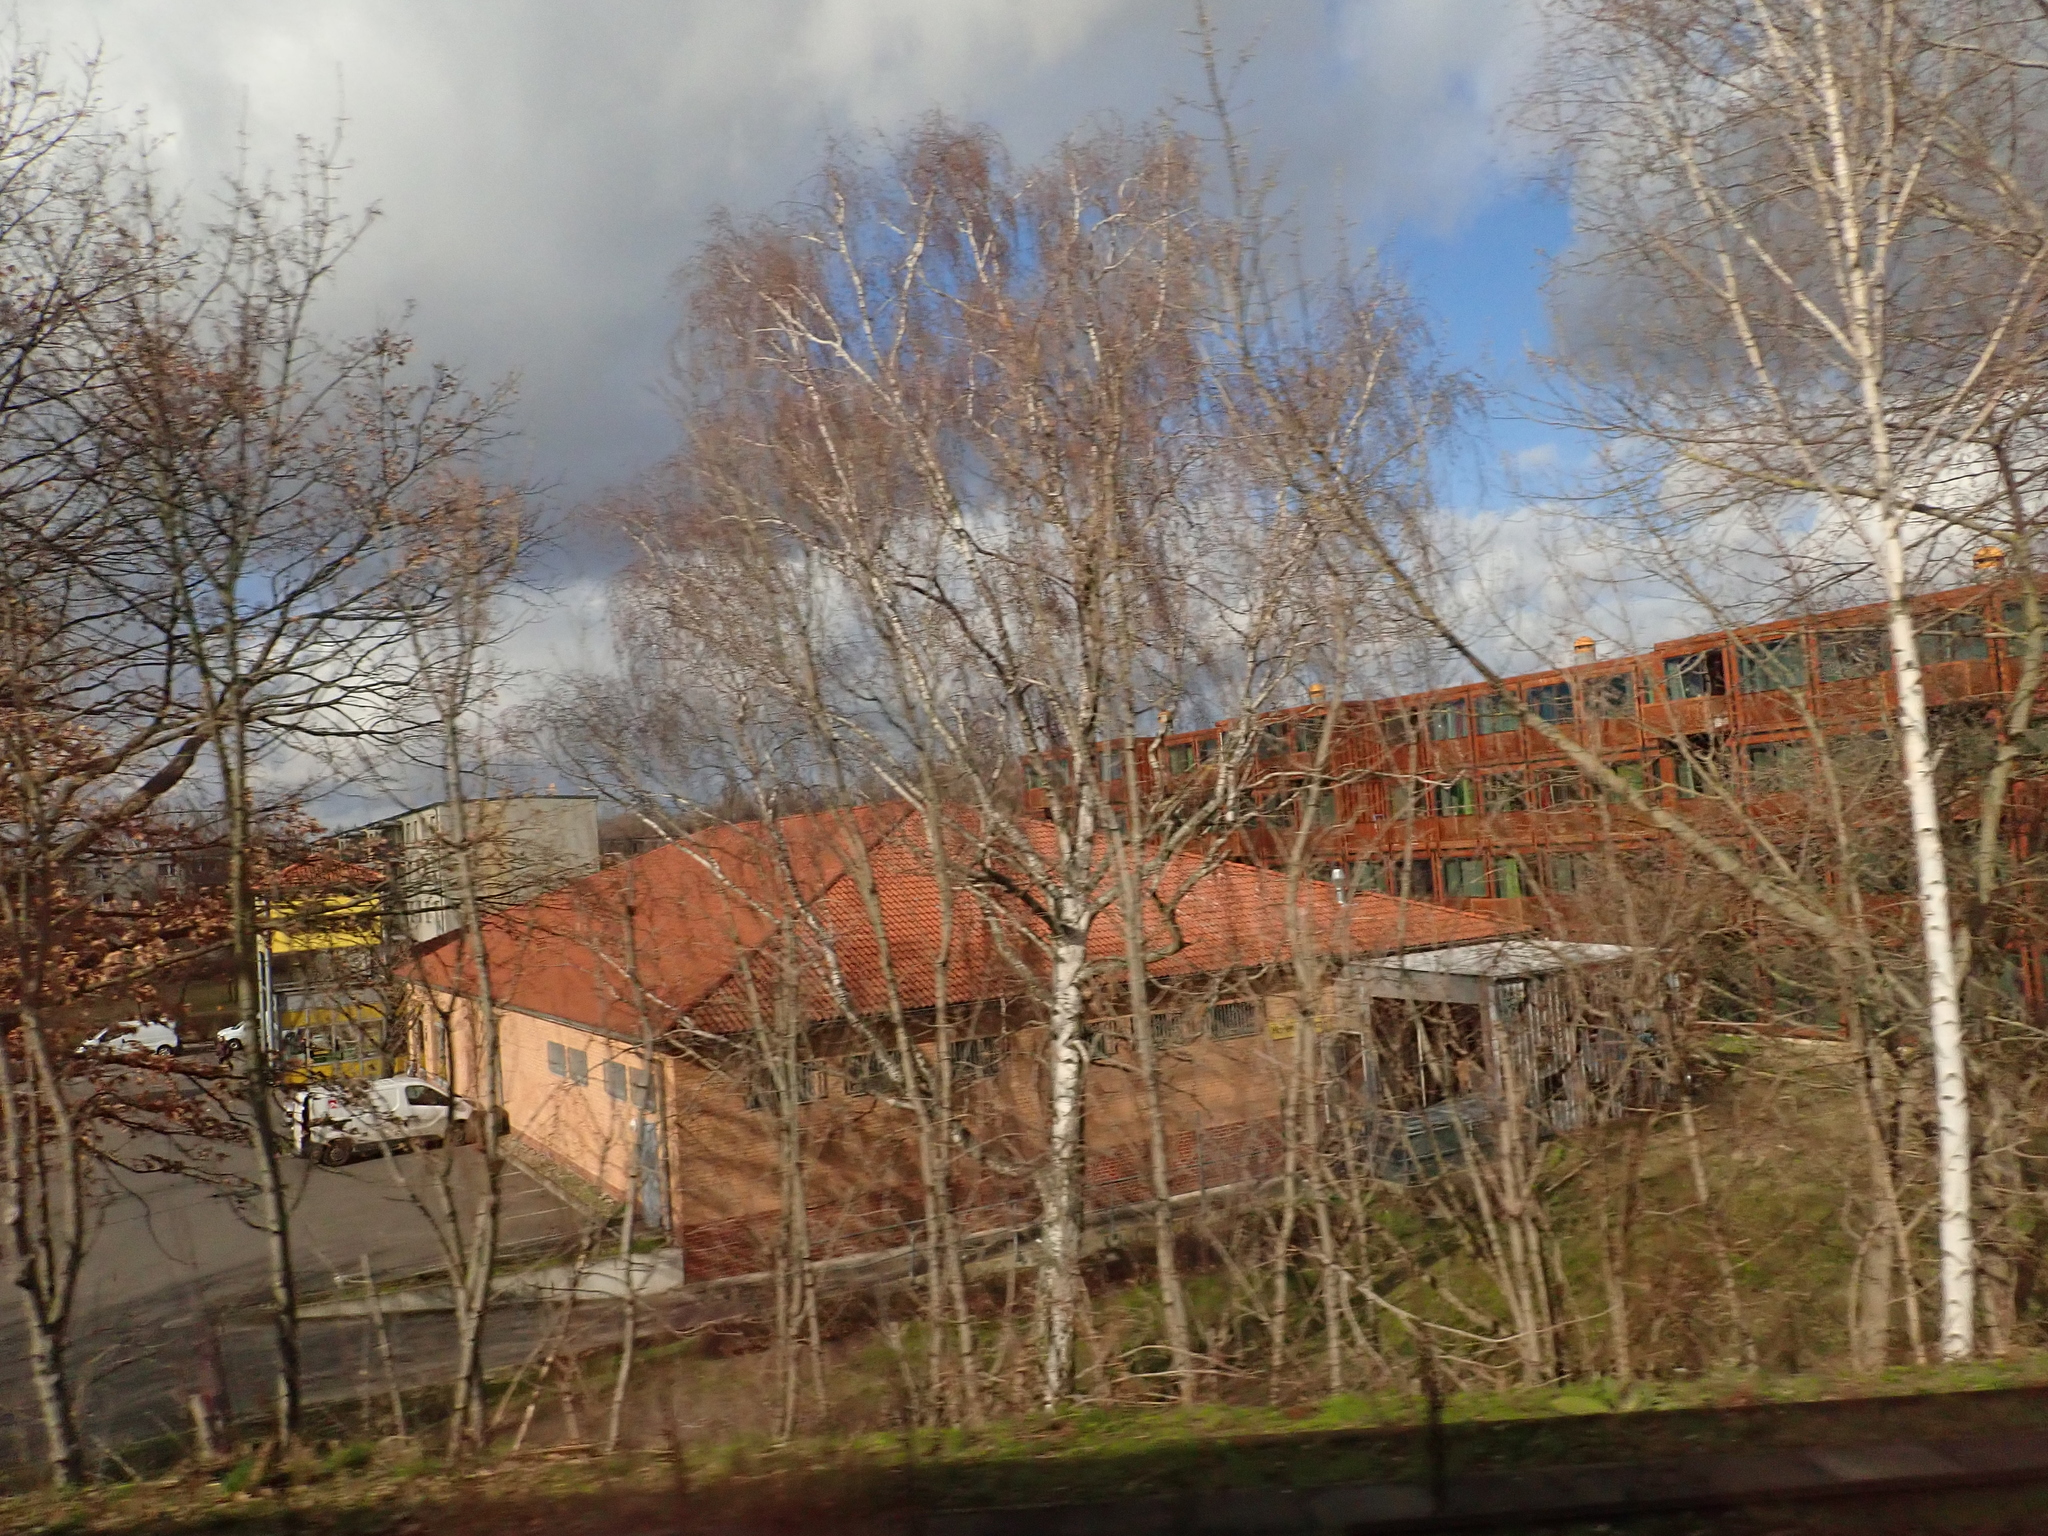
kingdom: Plantae
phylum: Tracheophyta
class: Magnoliopsida
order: Fagales
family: Betulaceae
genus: Betula
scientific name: Betula pendula
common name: Silver birch
